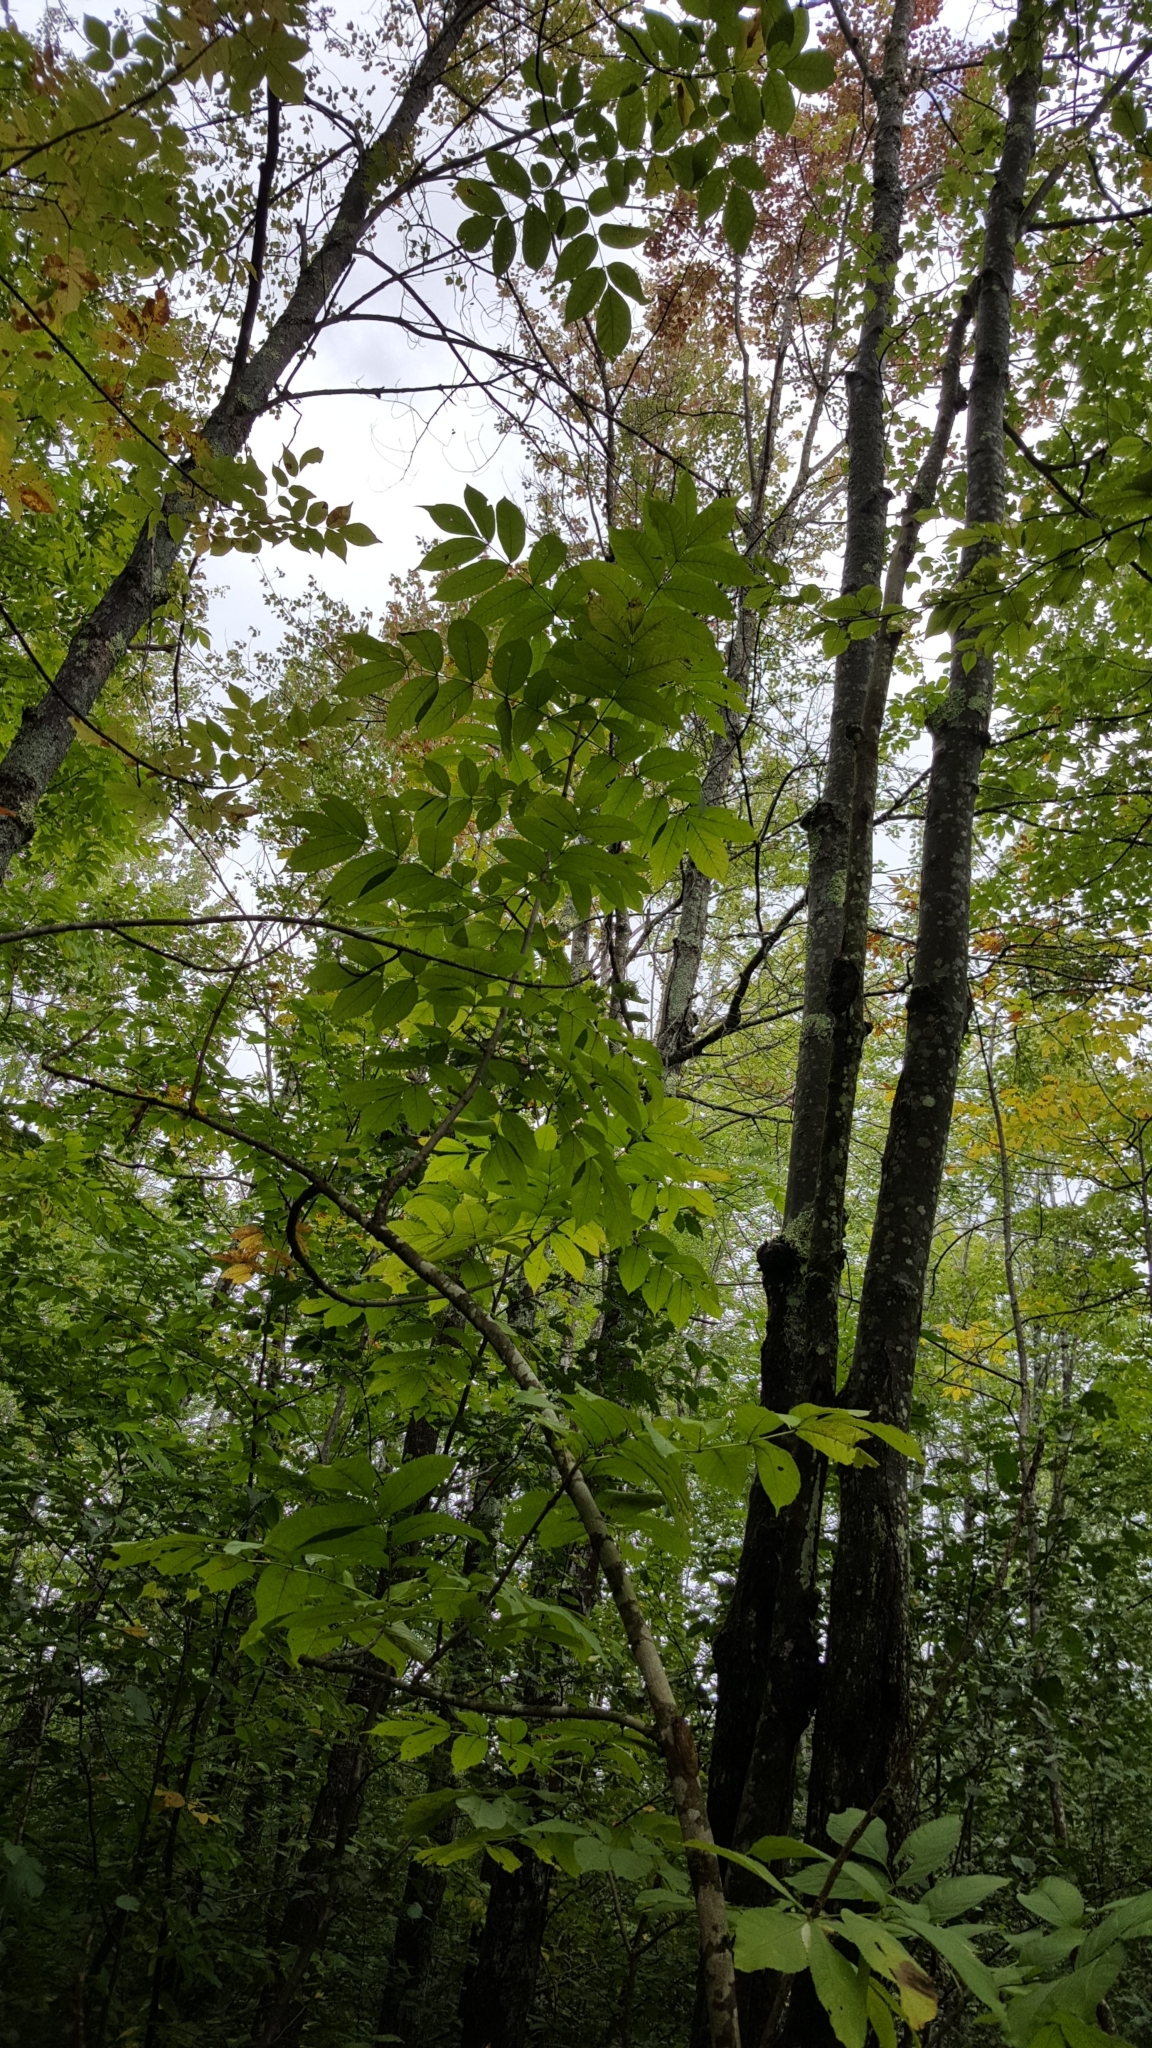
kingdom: Plantae
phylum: Tracheophyta
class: Magnoliopsida
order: Lamiales
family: Oleaceae
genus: Fraxinus
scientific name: Fraxinus nigra
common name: Black ash
